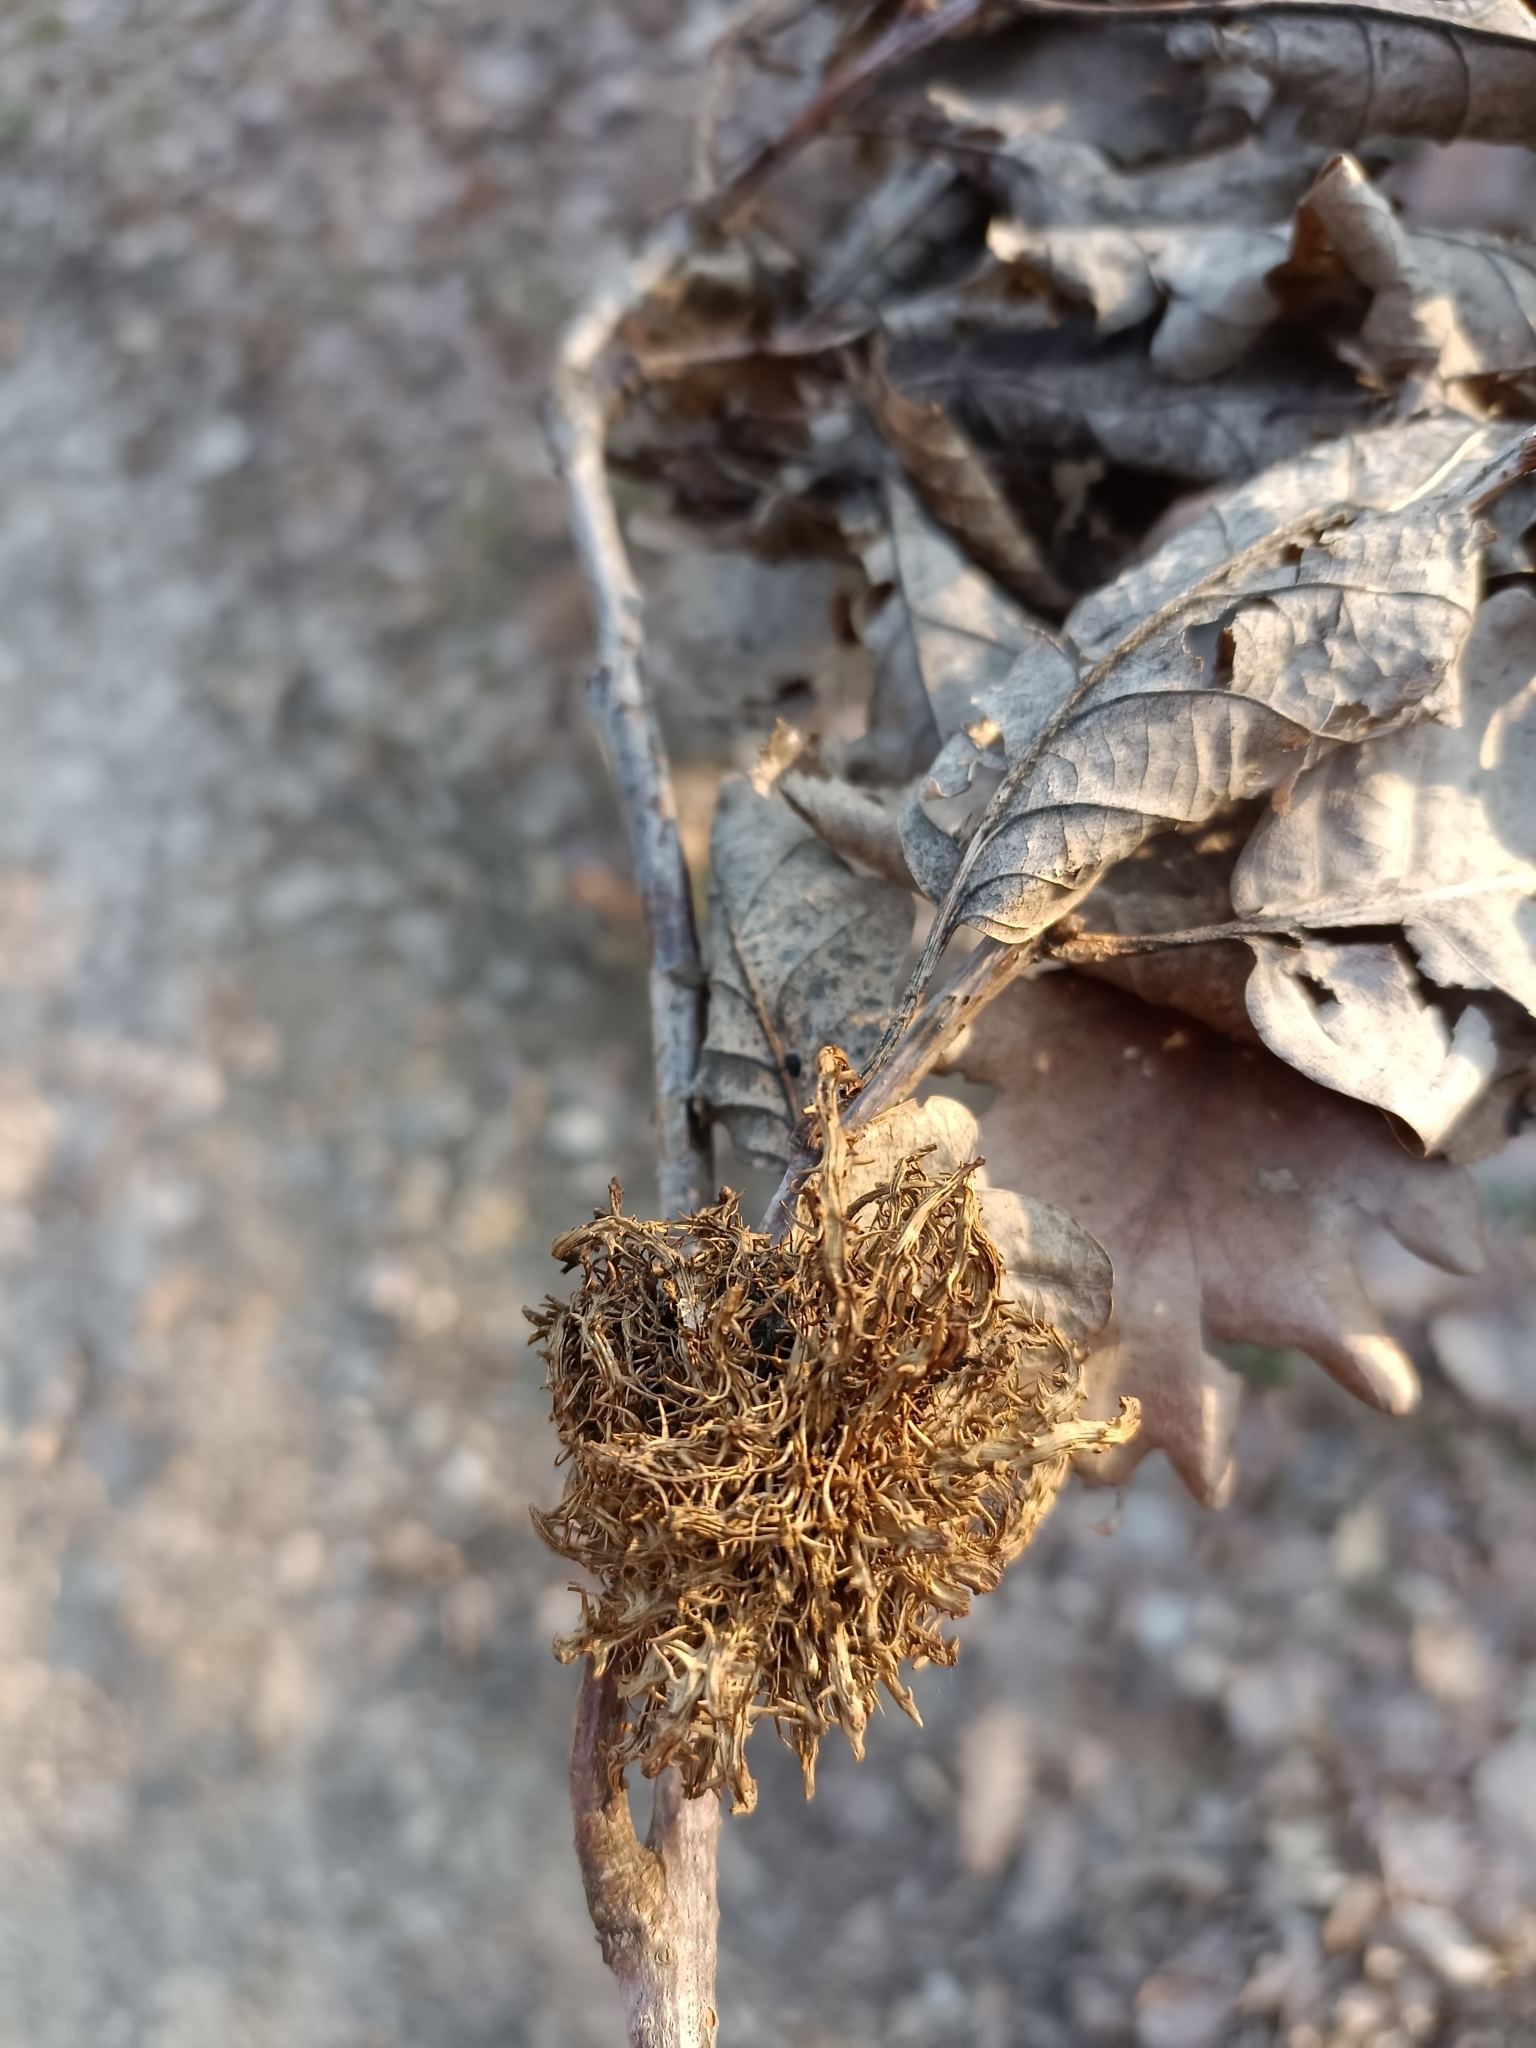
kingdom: Animalia
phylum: Arthropoda
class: Insecta
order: Hymenoptera
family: Cynipidae
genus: Andricus
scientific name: Andricus caputmedusae
